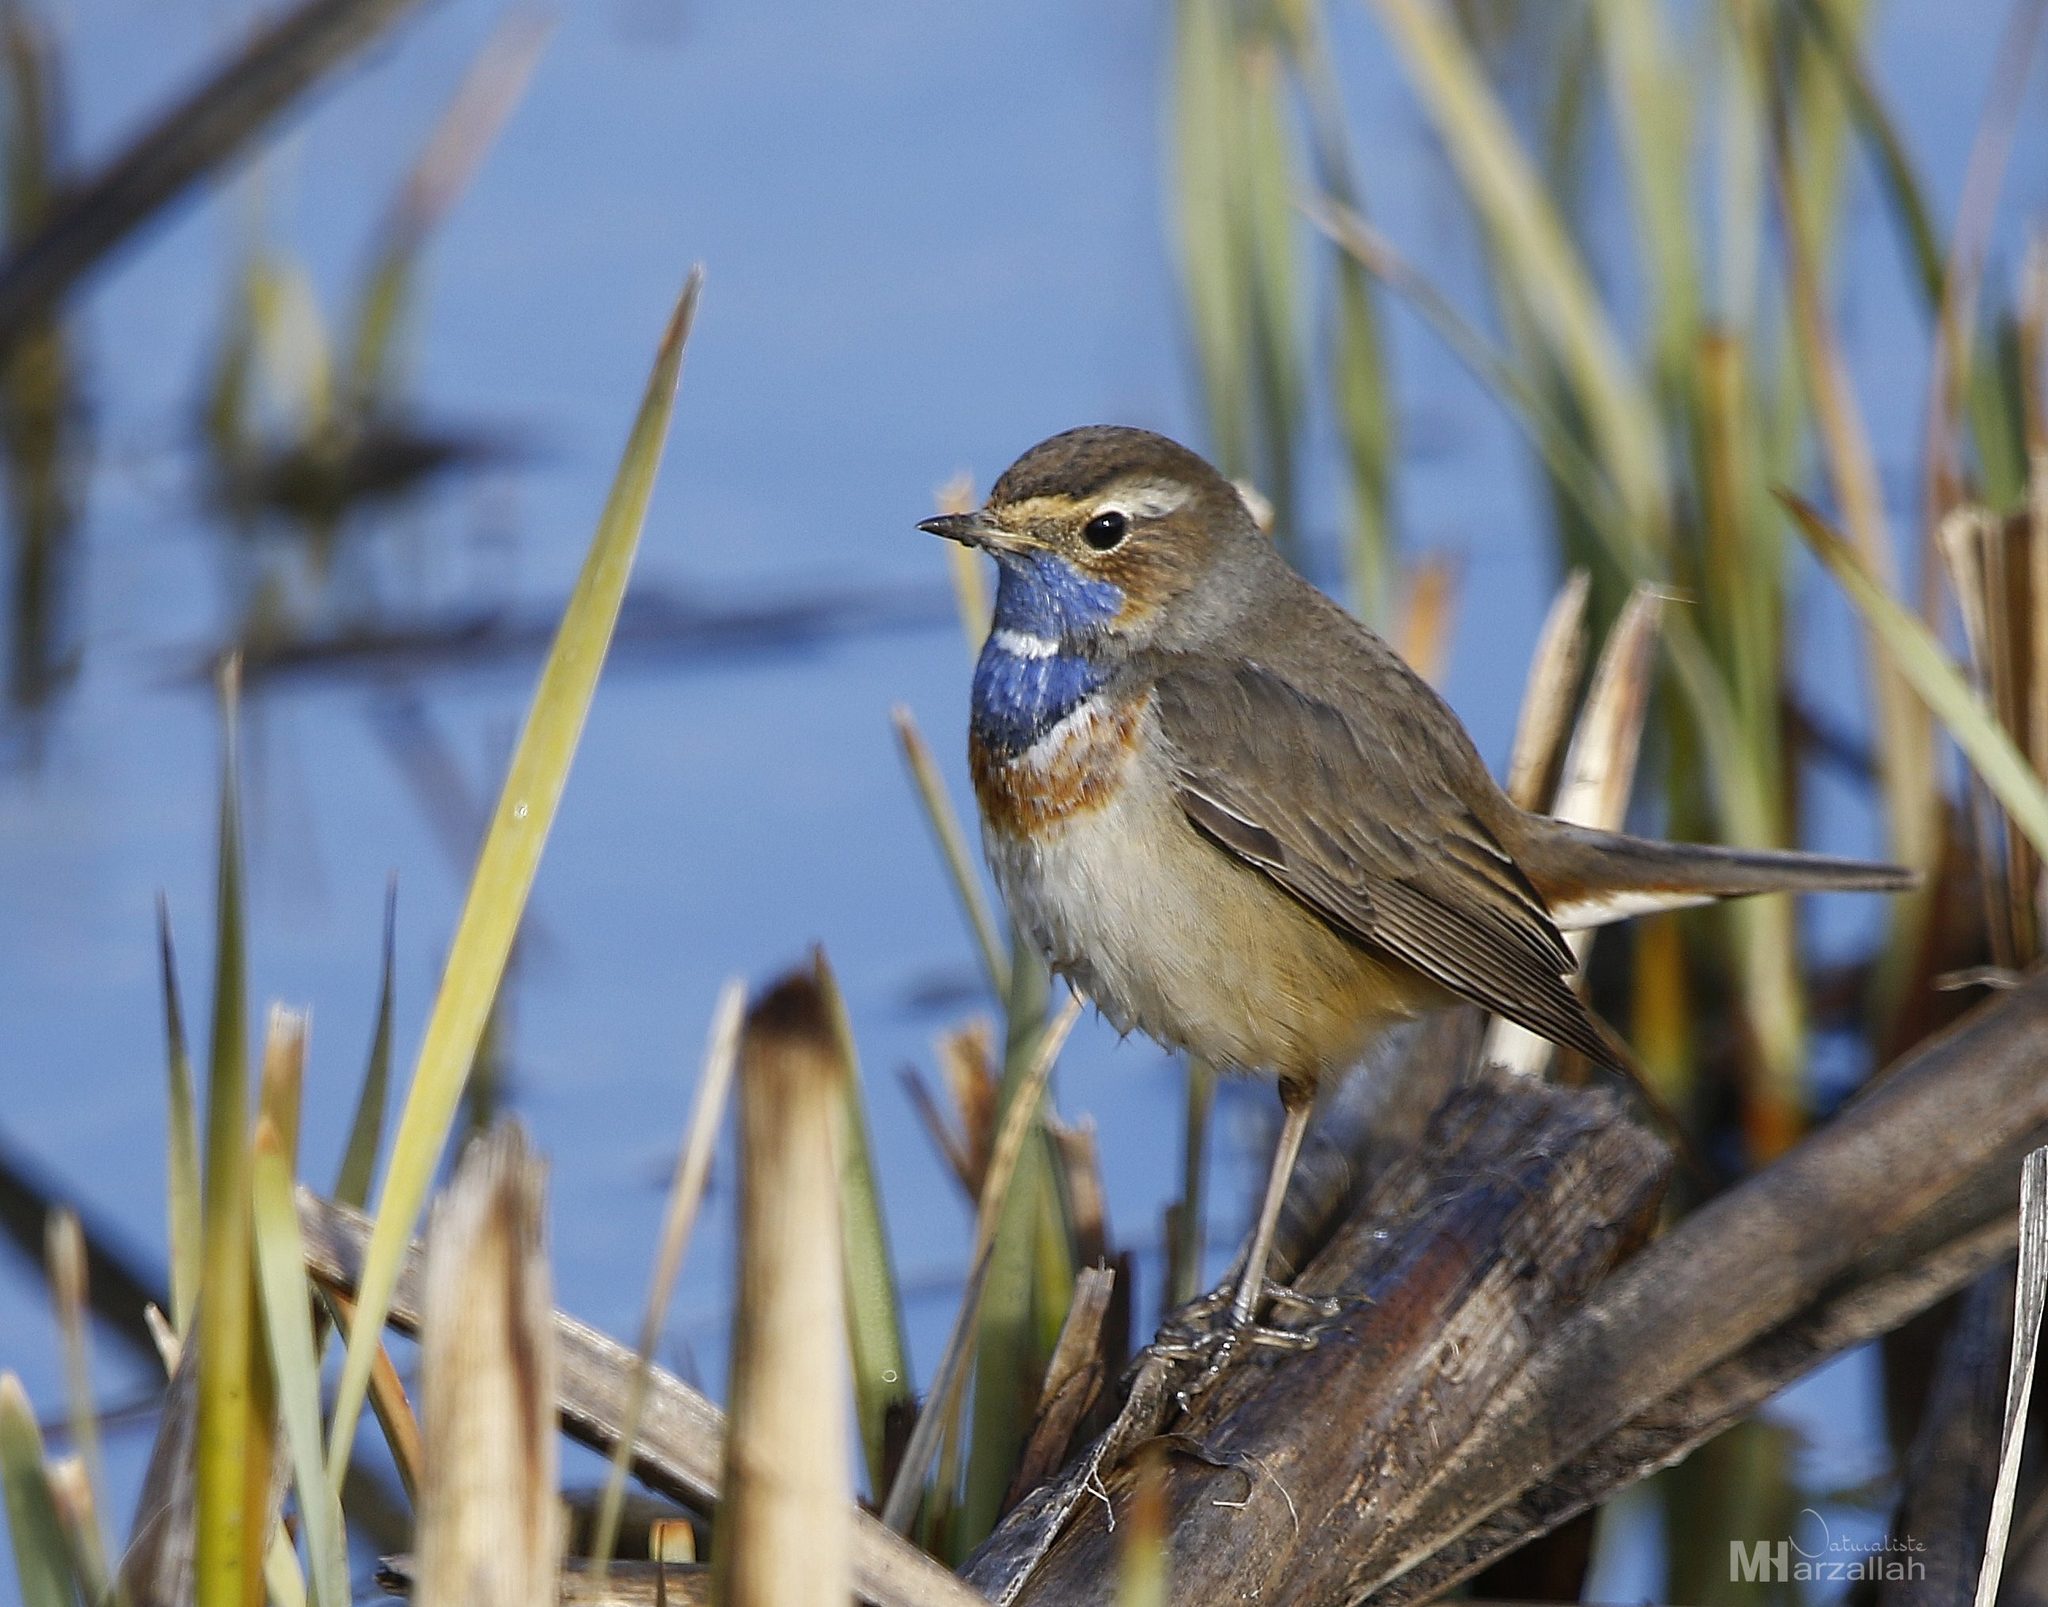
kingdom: Animalia
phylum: Chordata
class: Aves
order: Passeriformes
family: Muscicapidae
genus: Luscinia
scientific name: Luscinia svecica
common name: Bluethroat
